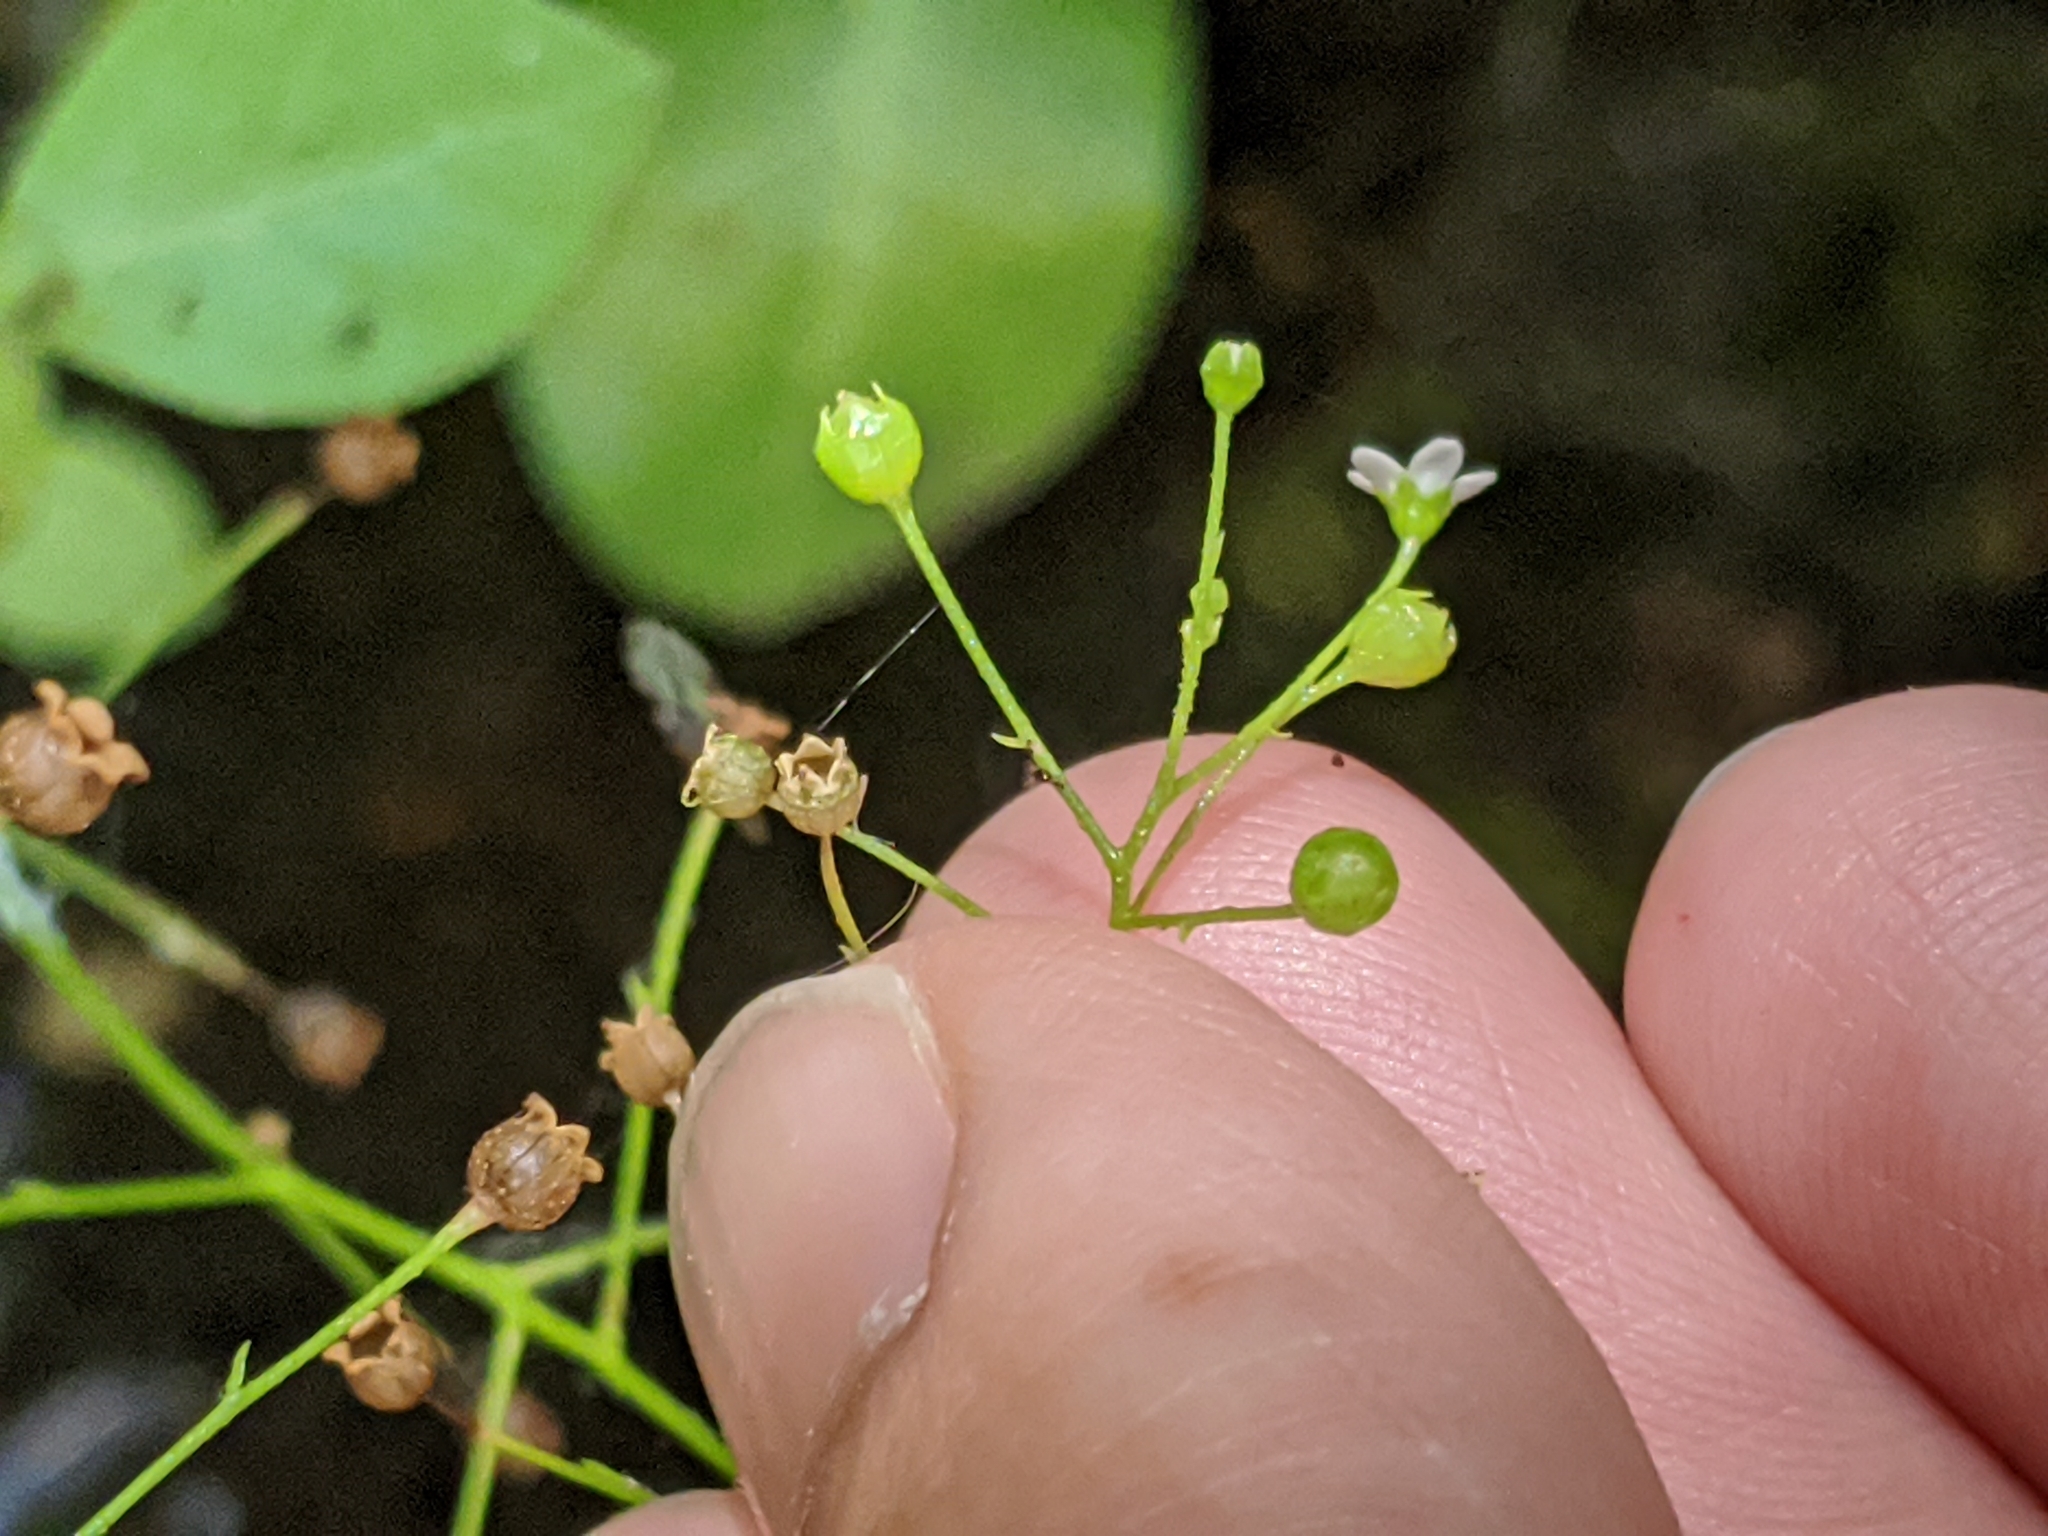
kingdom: Plantae
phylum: Tracheophyta
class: Magnoliopsida
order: Ericales
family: Primulaceae
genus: Samolus
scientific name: Samolus parviflorus
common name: False water pimpernel
